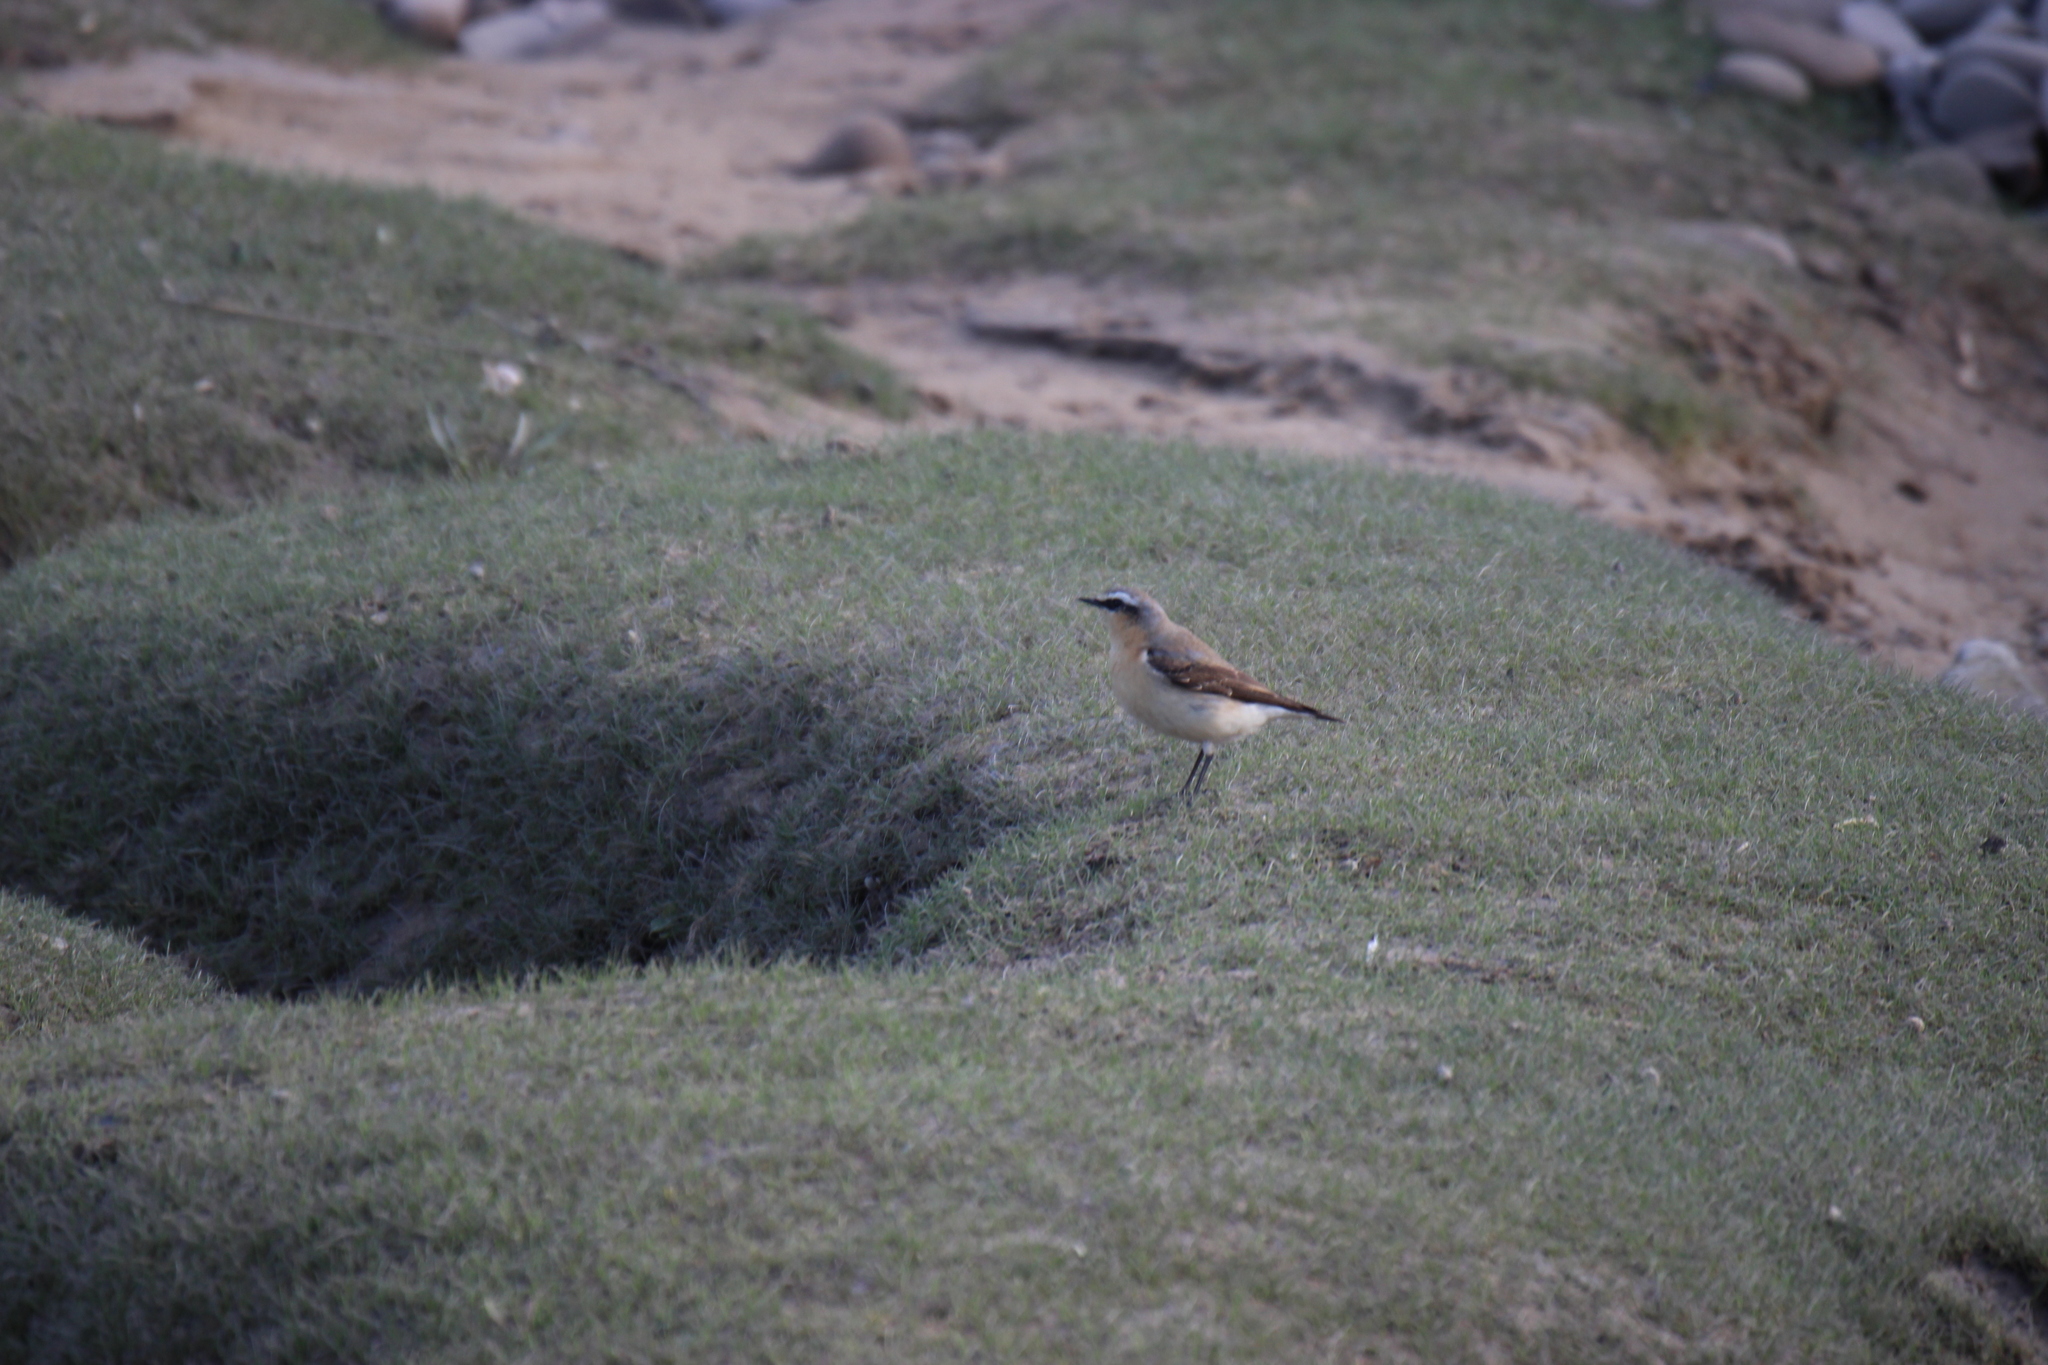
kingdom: Animalia
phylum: Chordata
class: Aves
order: Passeriformes
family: Muscicapidae
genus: Oenanthe
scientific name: Oenanthe oenanthe
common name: Northern wheatear
